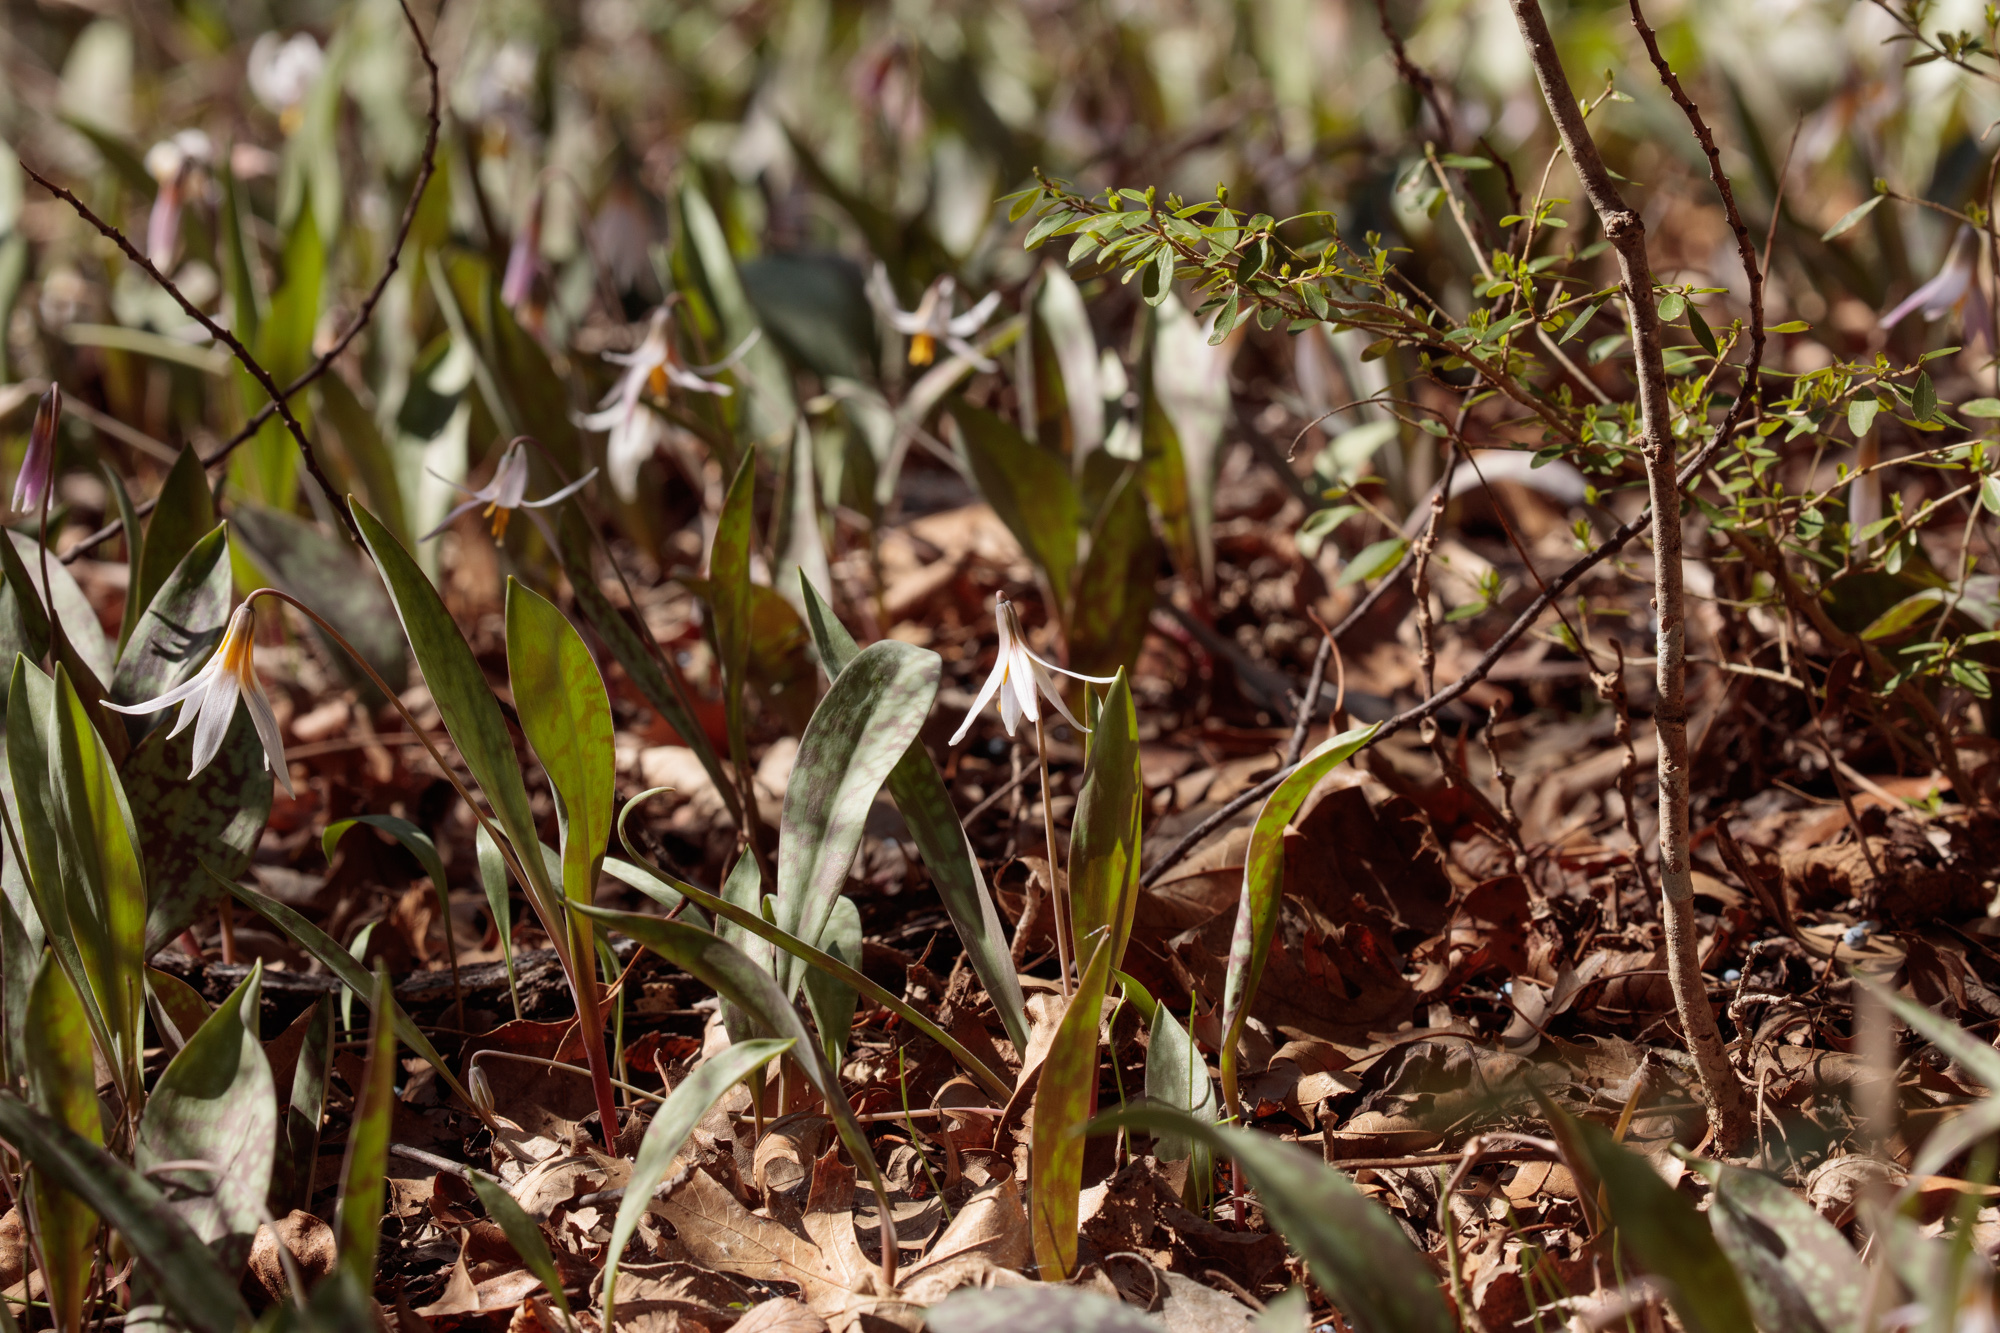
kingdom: Plantae
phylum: Tracheophyta
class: Liliopsida
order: Liliales
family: Liliaceae
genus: Erythronium
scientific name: Erythronium albidum
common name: White trout-lily
